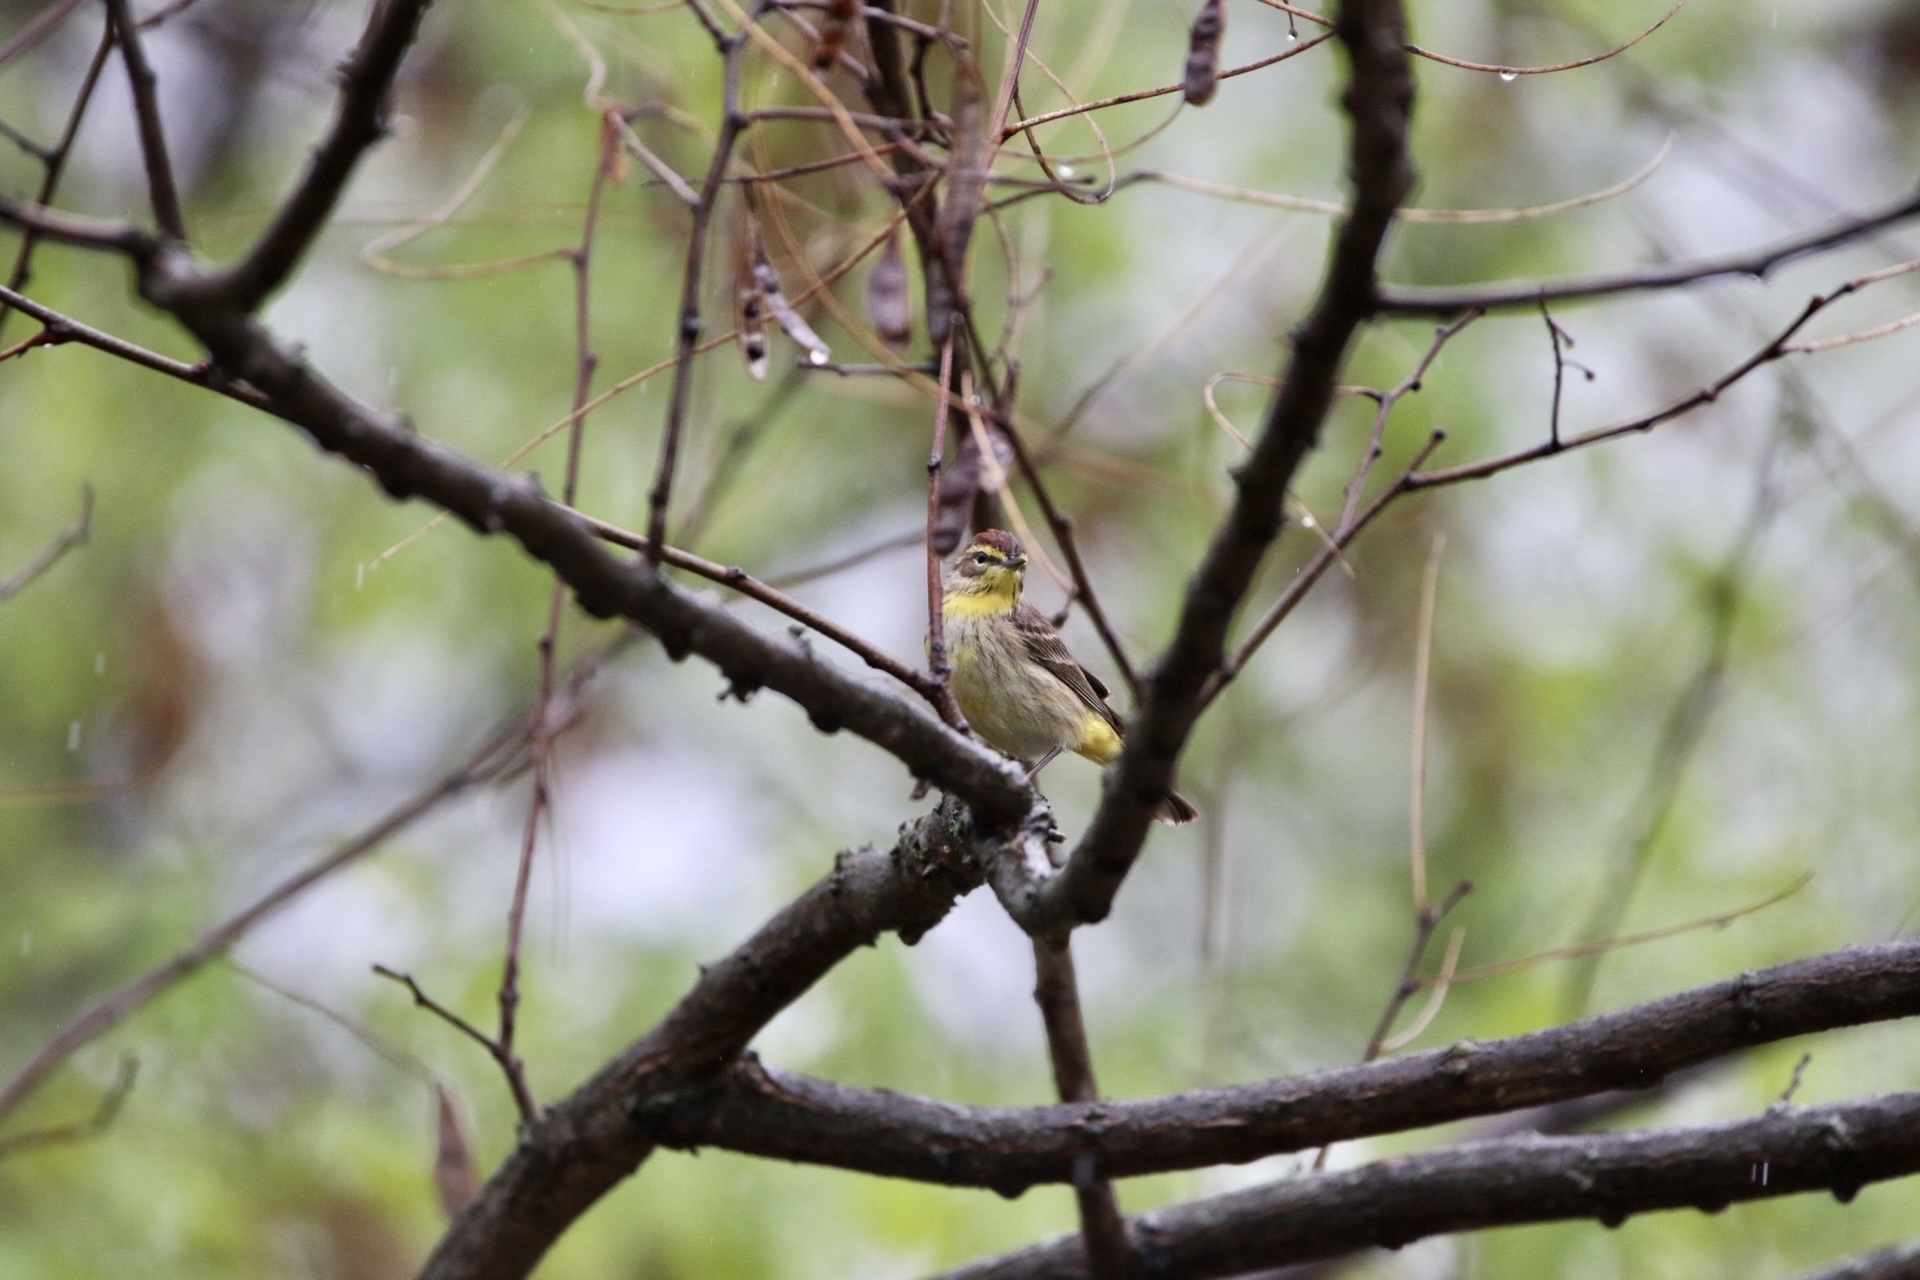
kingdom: Animalia
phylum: Chordata
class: Aves
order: Passeriformes
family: Parulidae
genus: Setophaga
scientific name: Setophaga palmarum
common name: Palm warbler
